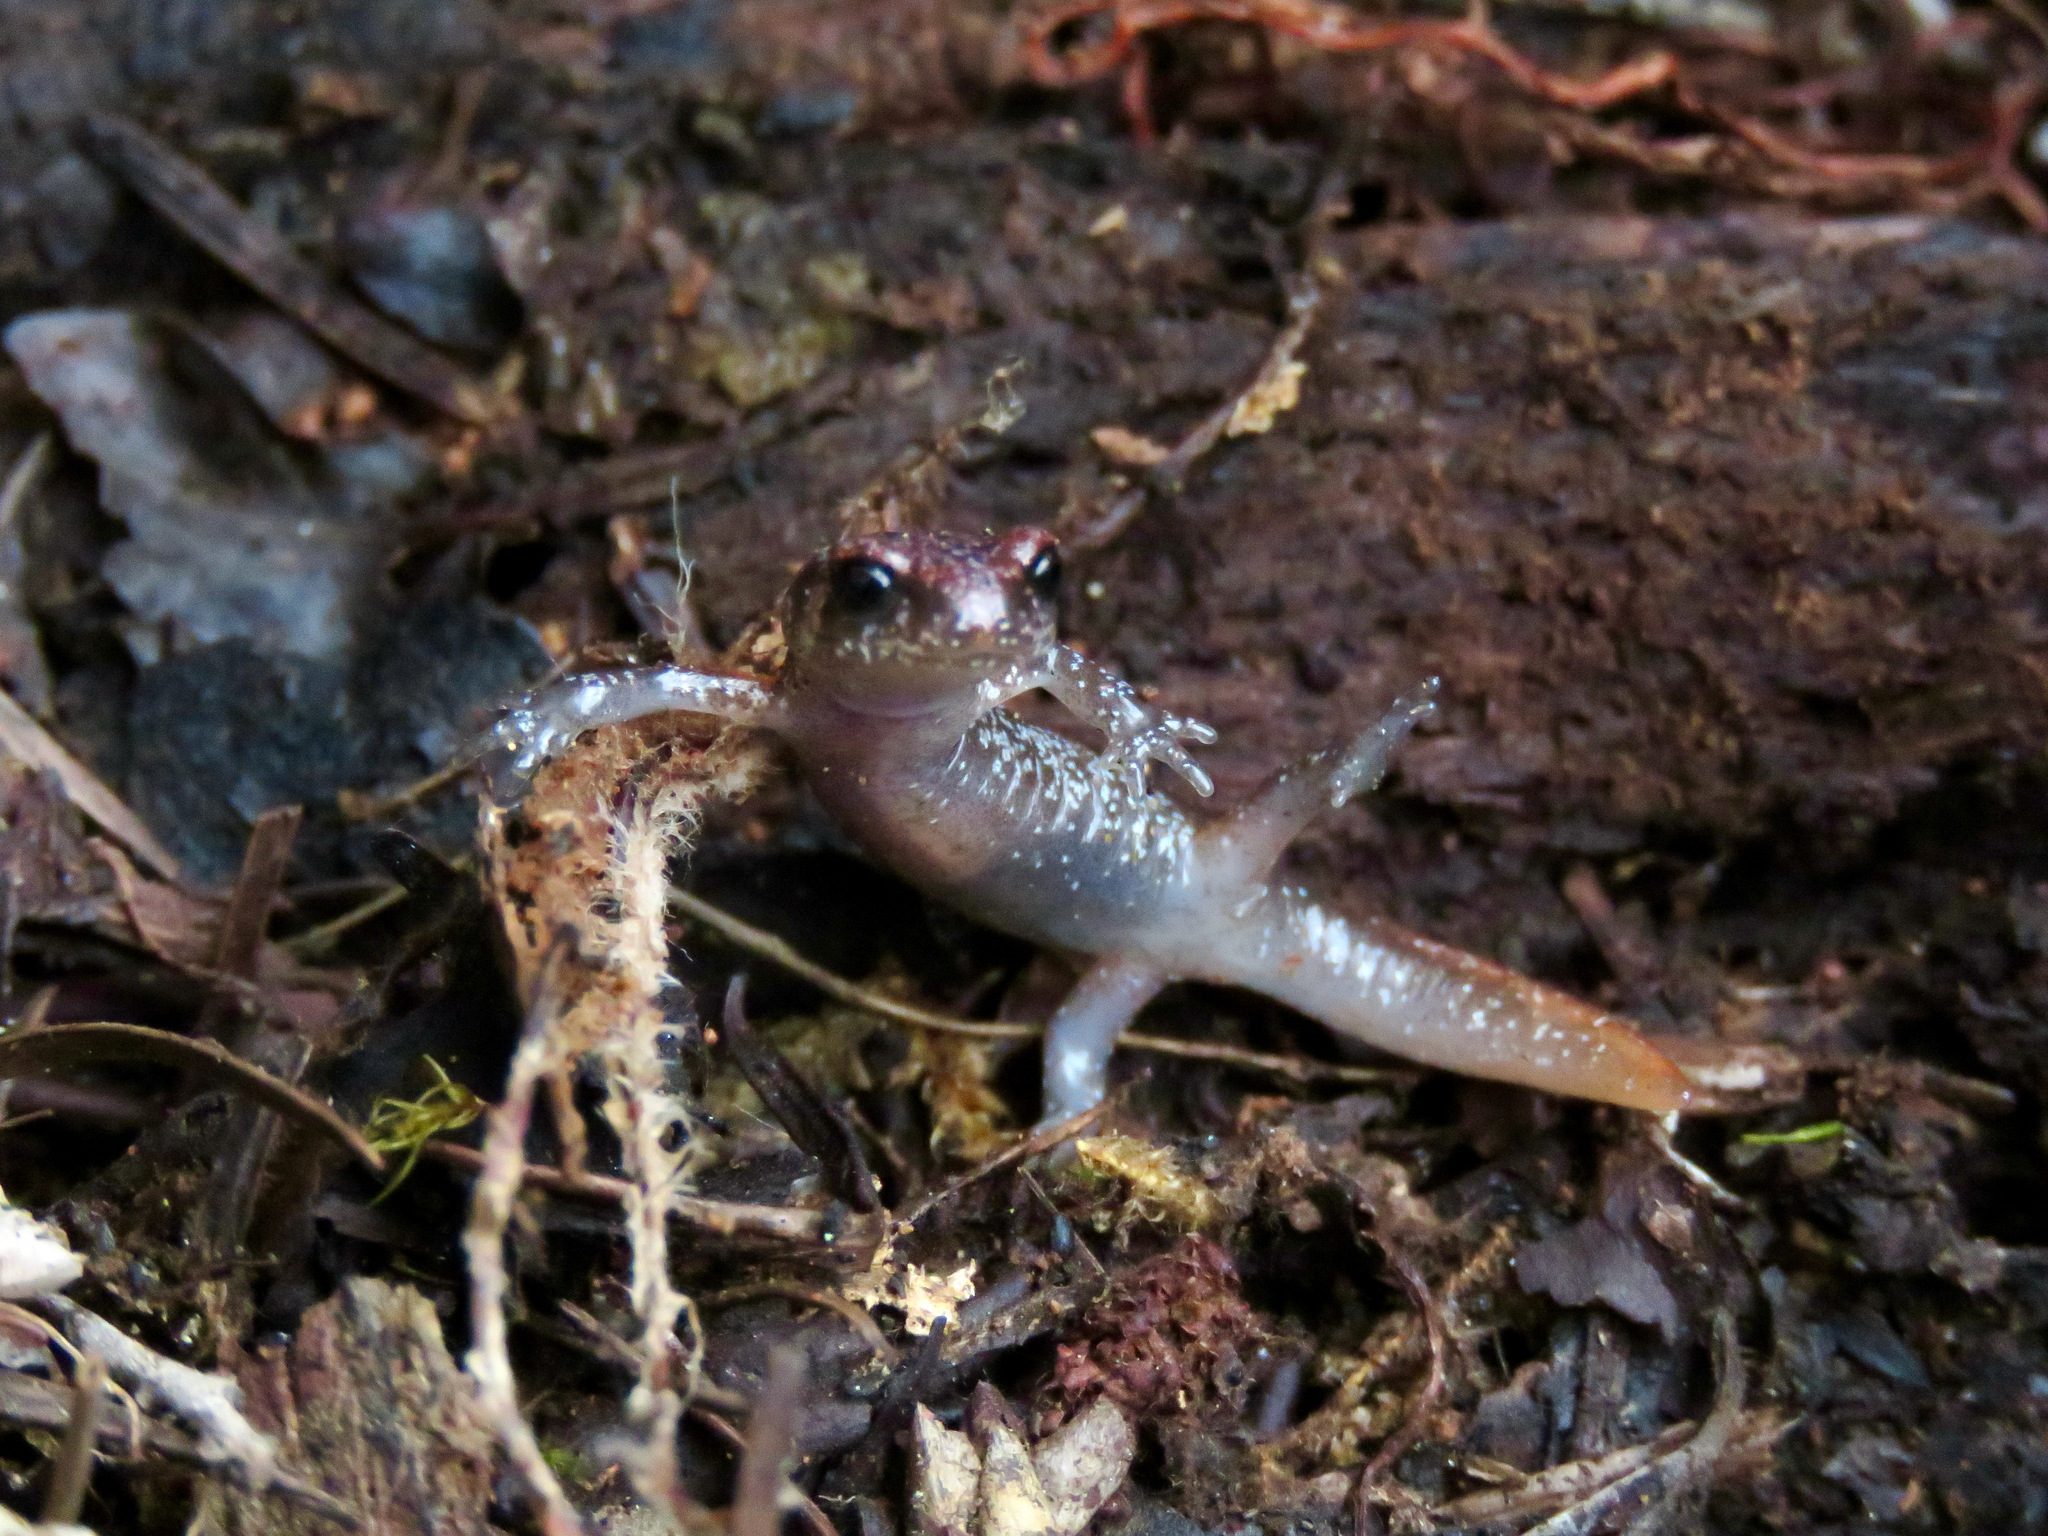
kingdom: Animalia
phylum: Chordata
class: Amphibia
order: Caudata
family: Plethodontidae
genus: Ensatina
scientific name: Ensatina eschscholtzii
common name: Ensatina
